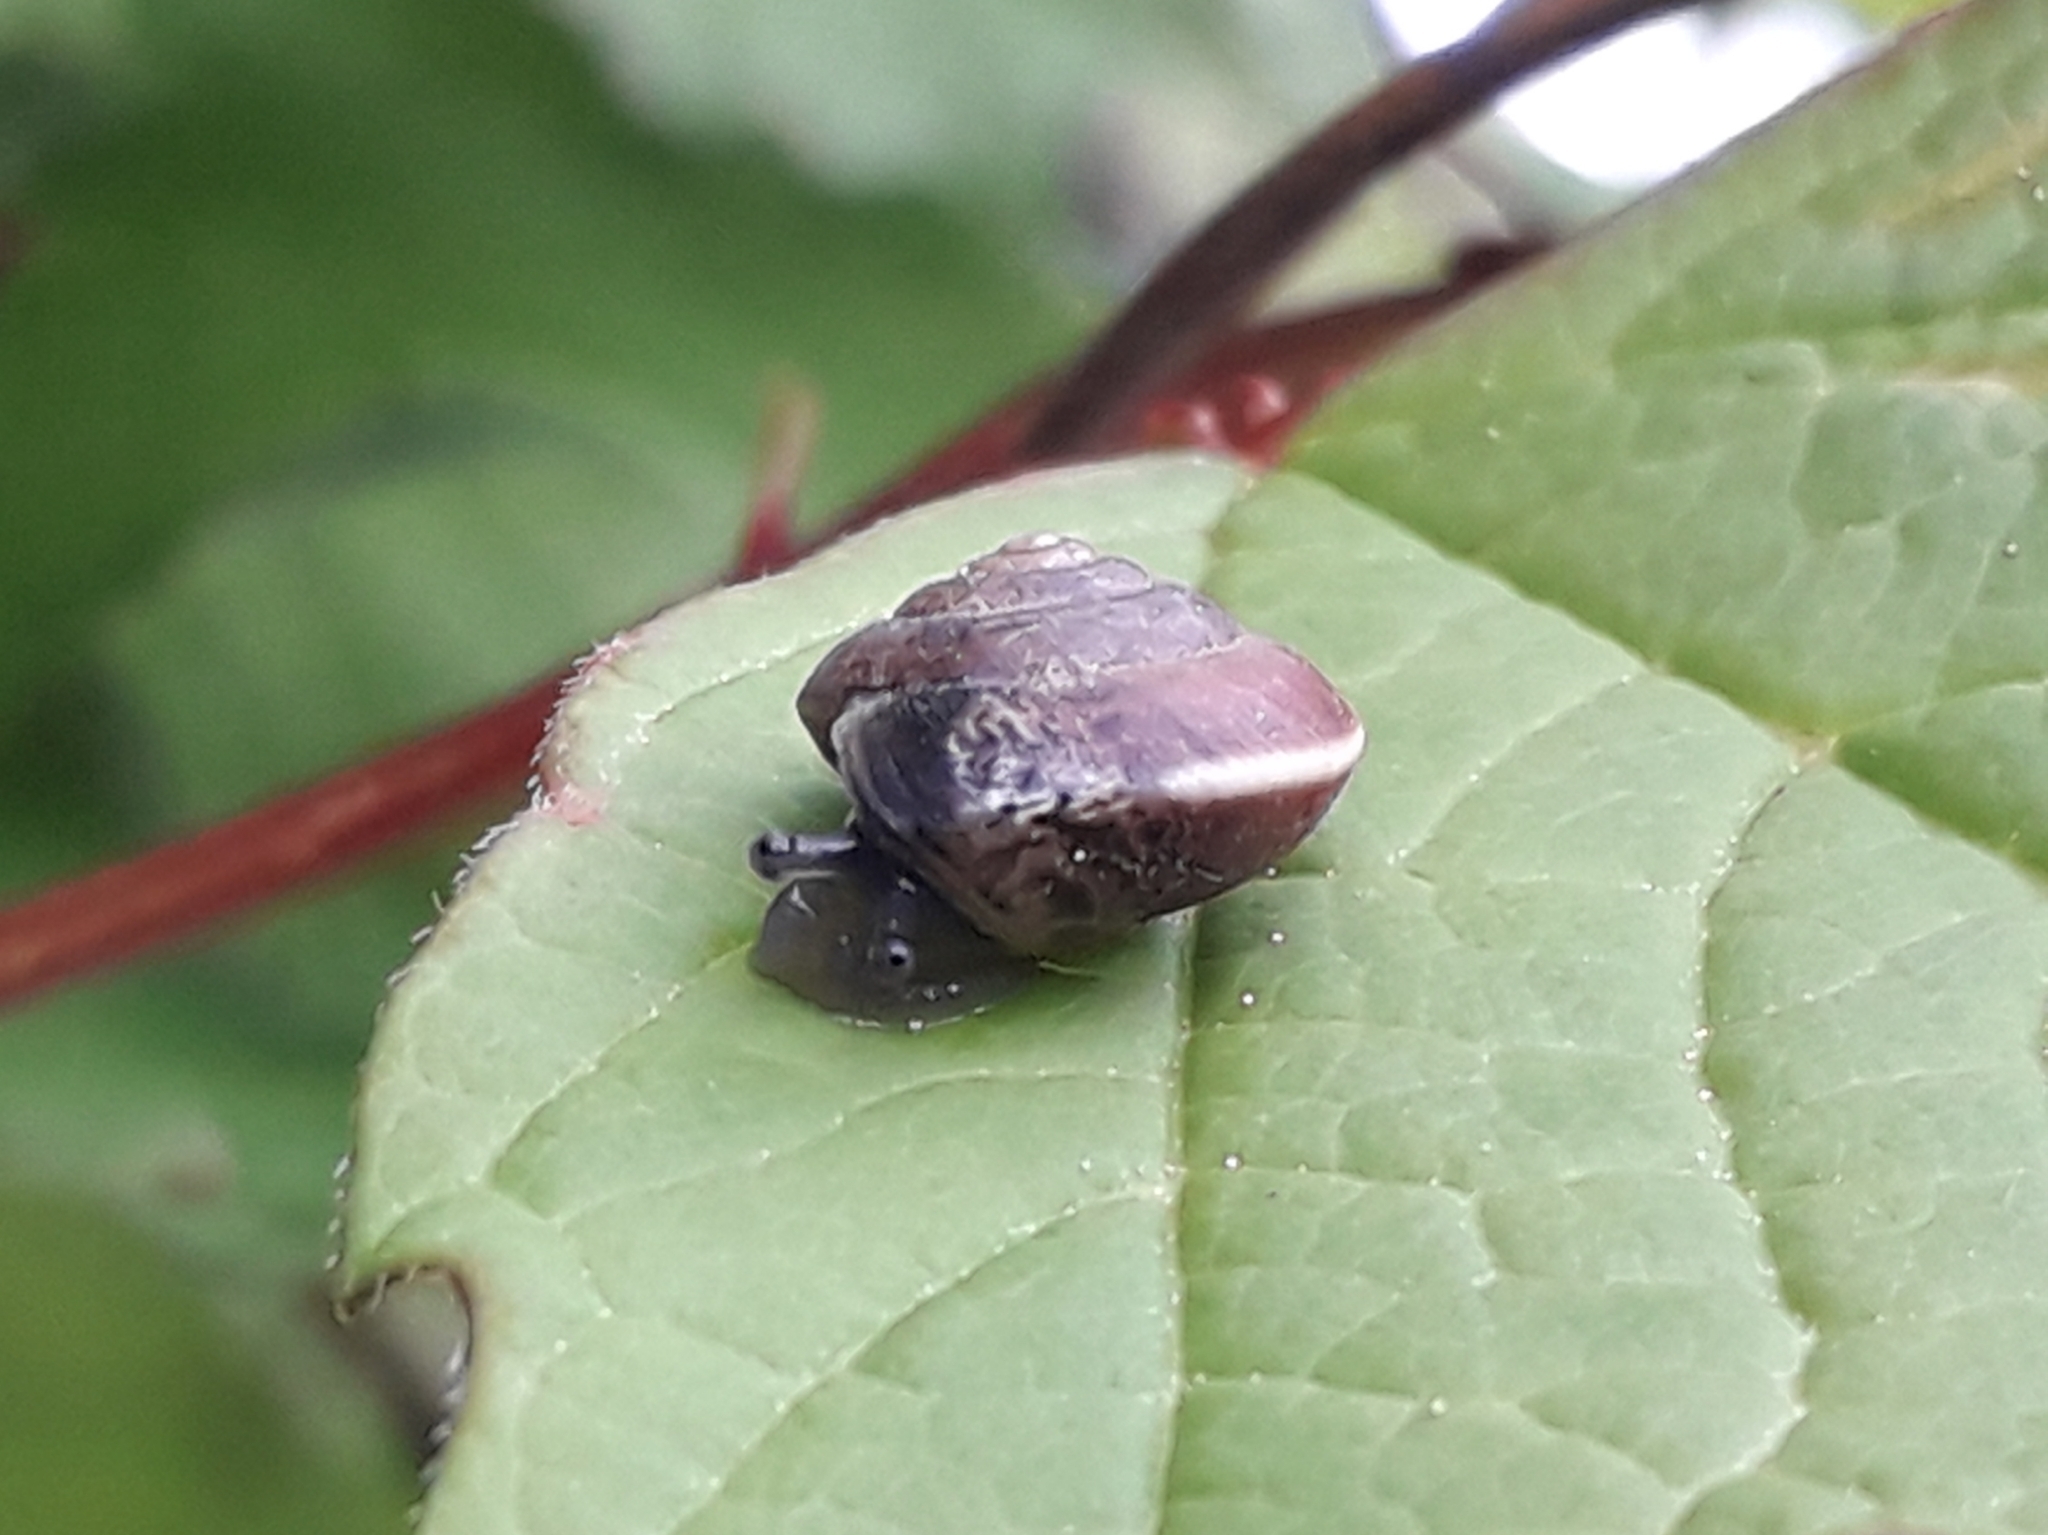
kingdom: Animalia
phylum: Mollusca
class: Gastropoda
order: Stylommatophora
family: Hygromiidae
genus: Hygromia
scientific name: Hygromia cinctella
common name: Girdled snail
